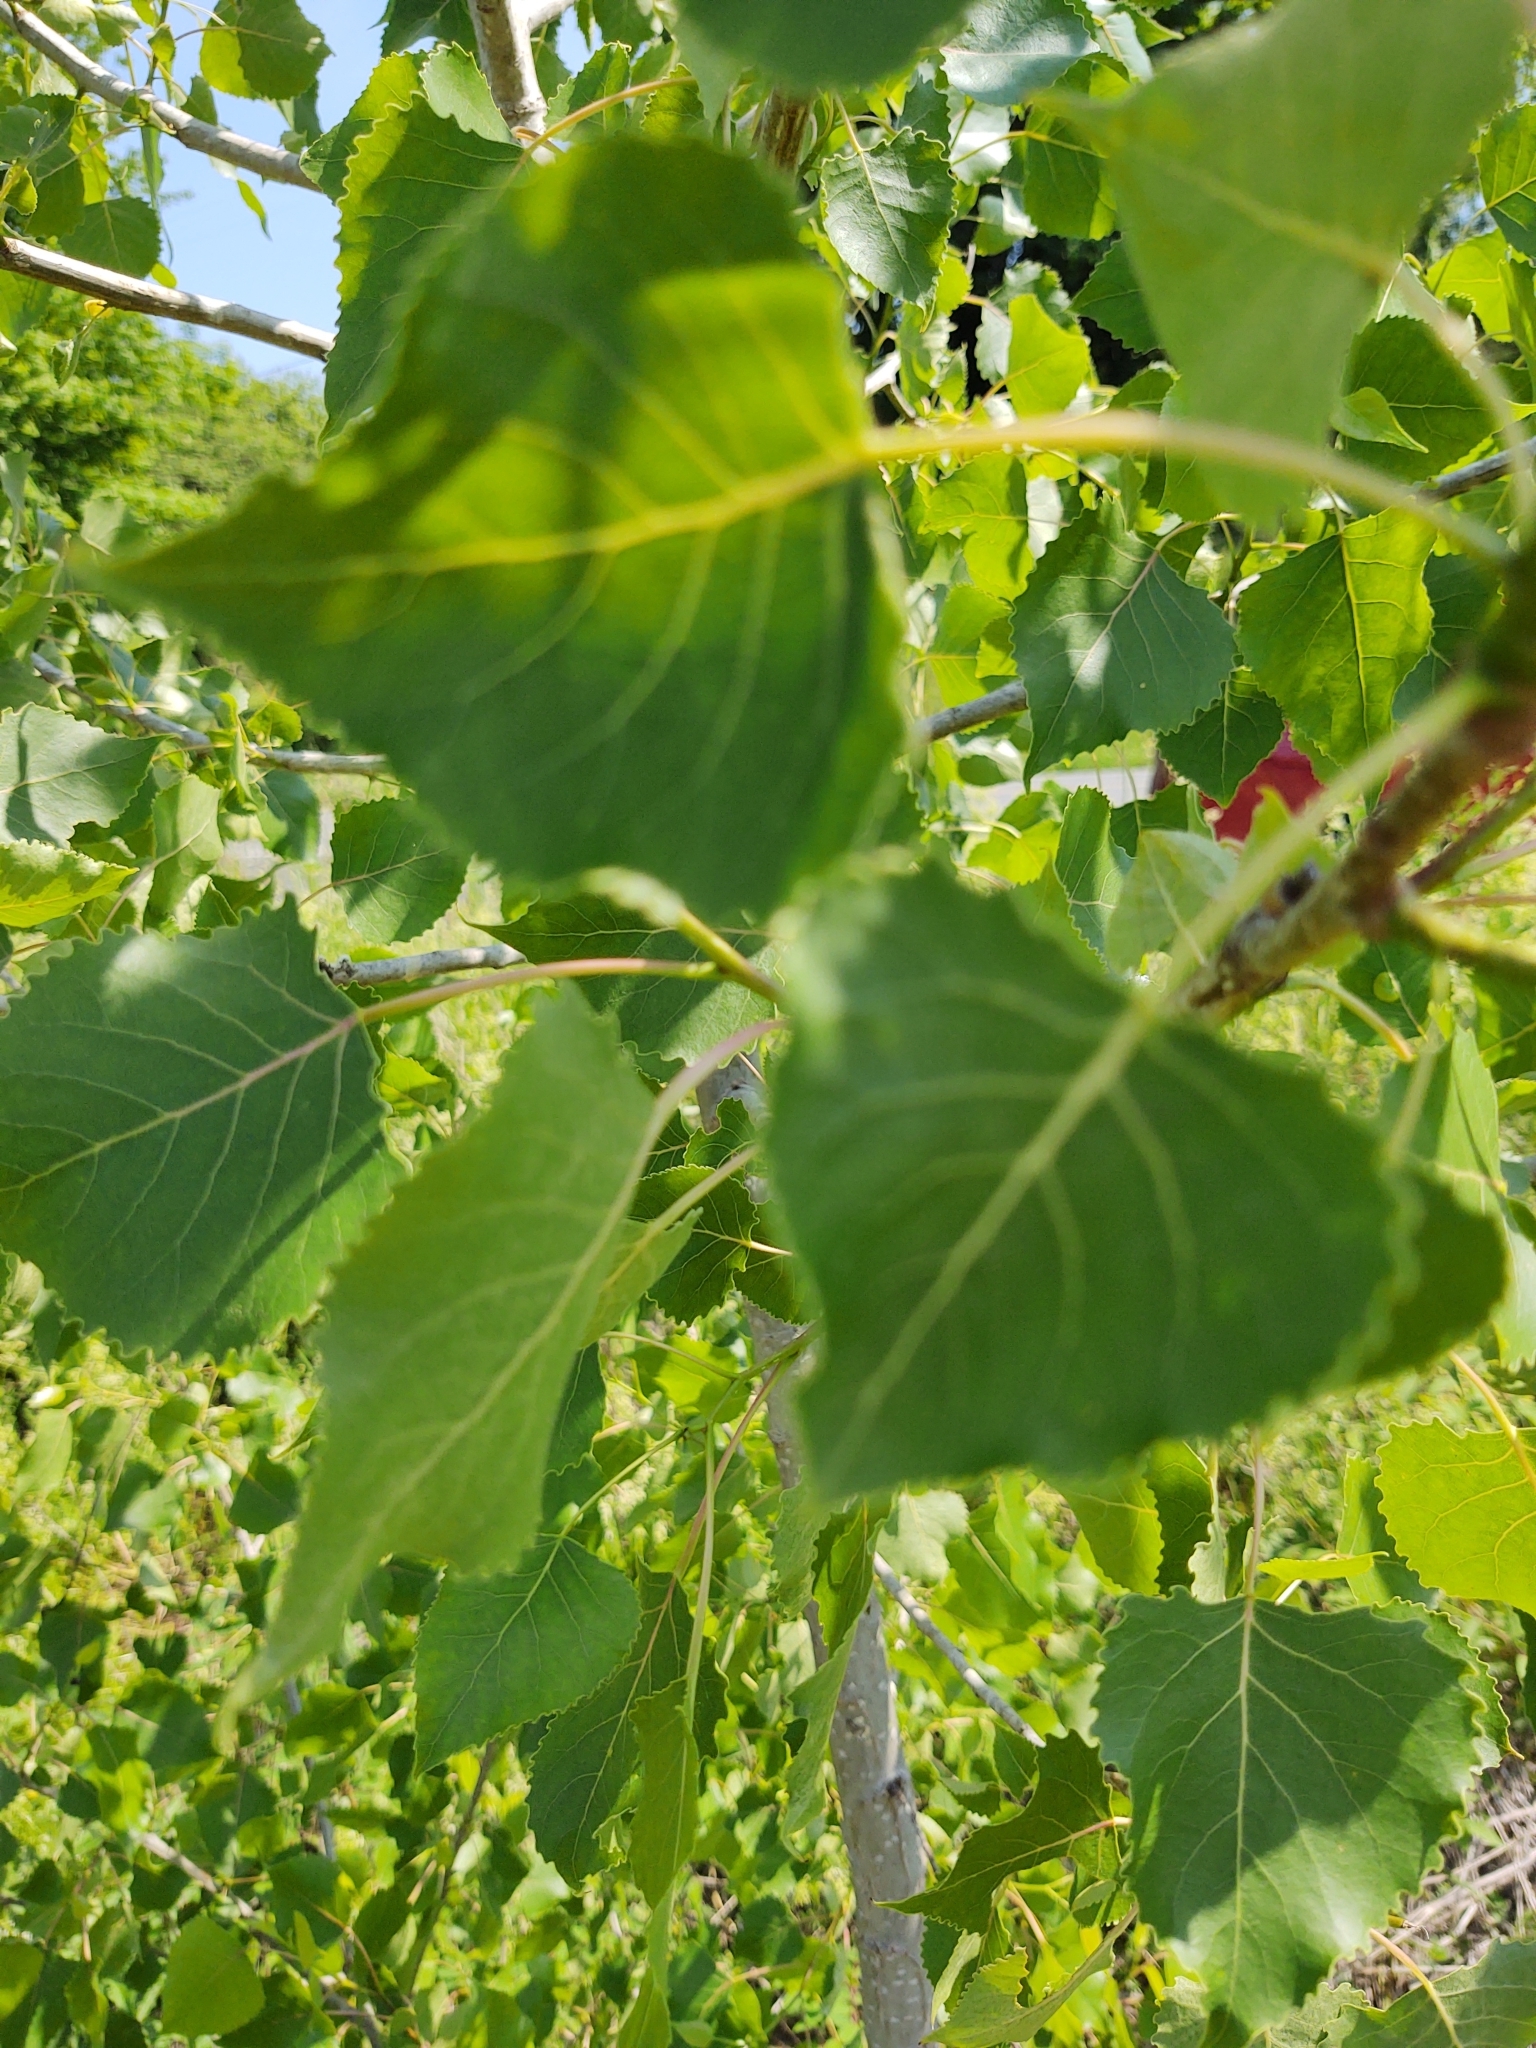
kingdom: Plantae
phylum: Tracheophyta
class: Magnoliopsida
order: Malpighiales
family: Salicaceae
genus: Populus
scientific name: Populus deltoides
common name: Eastern cottonwood
